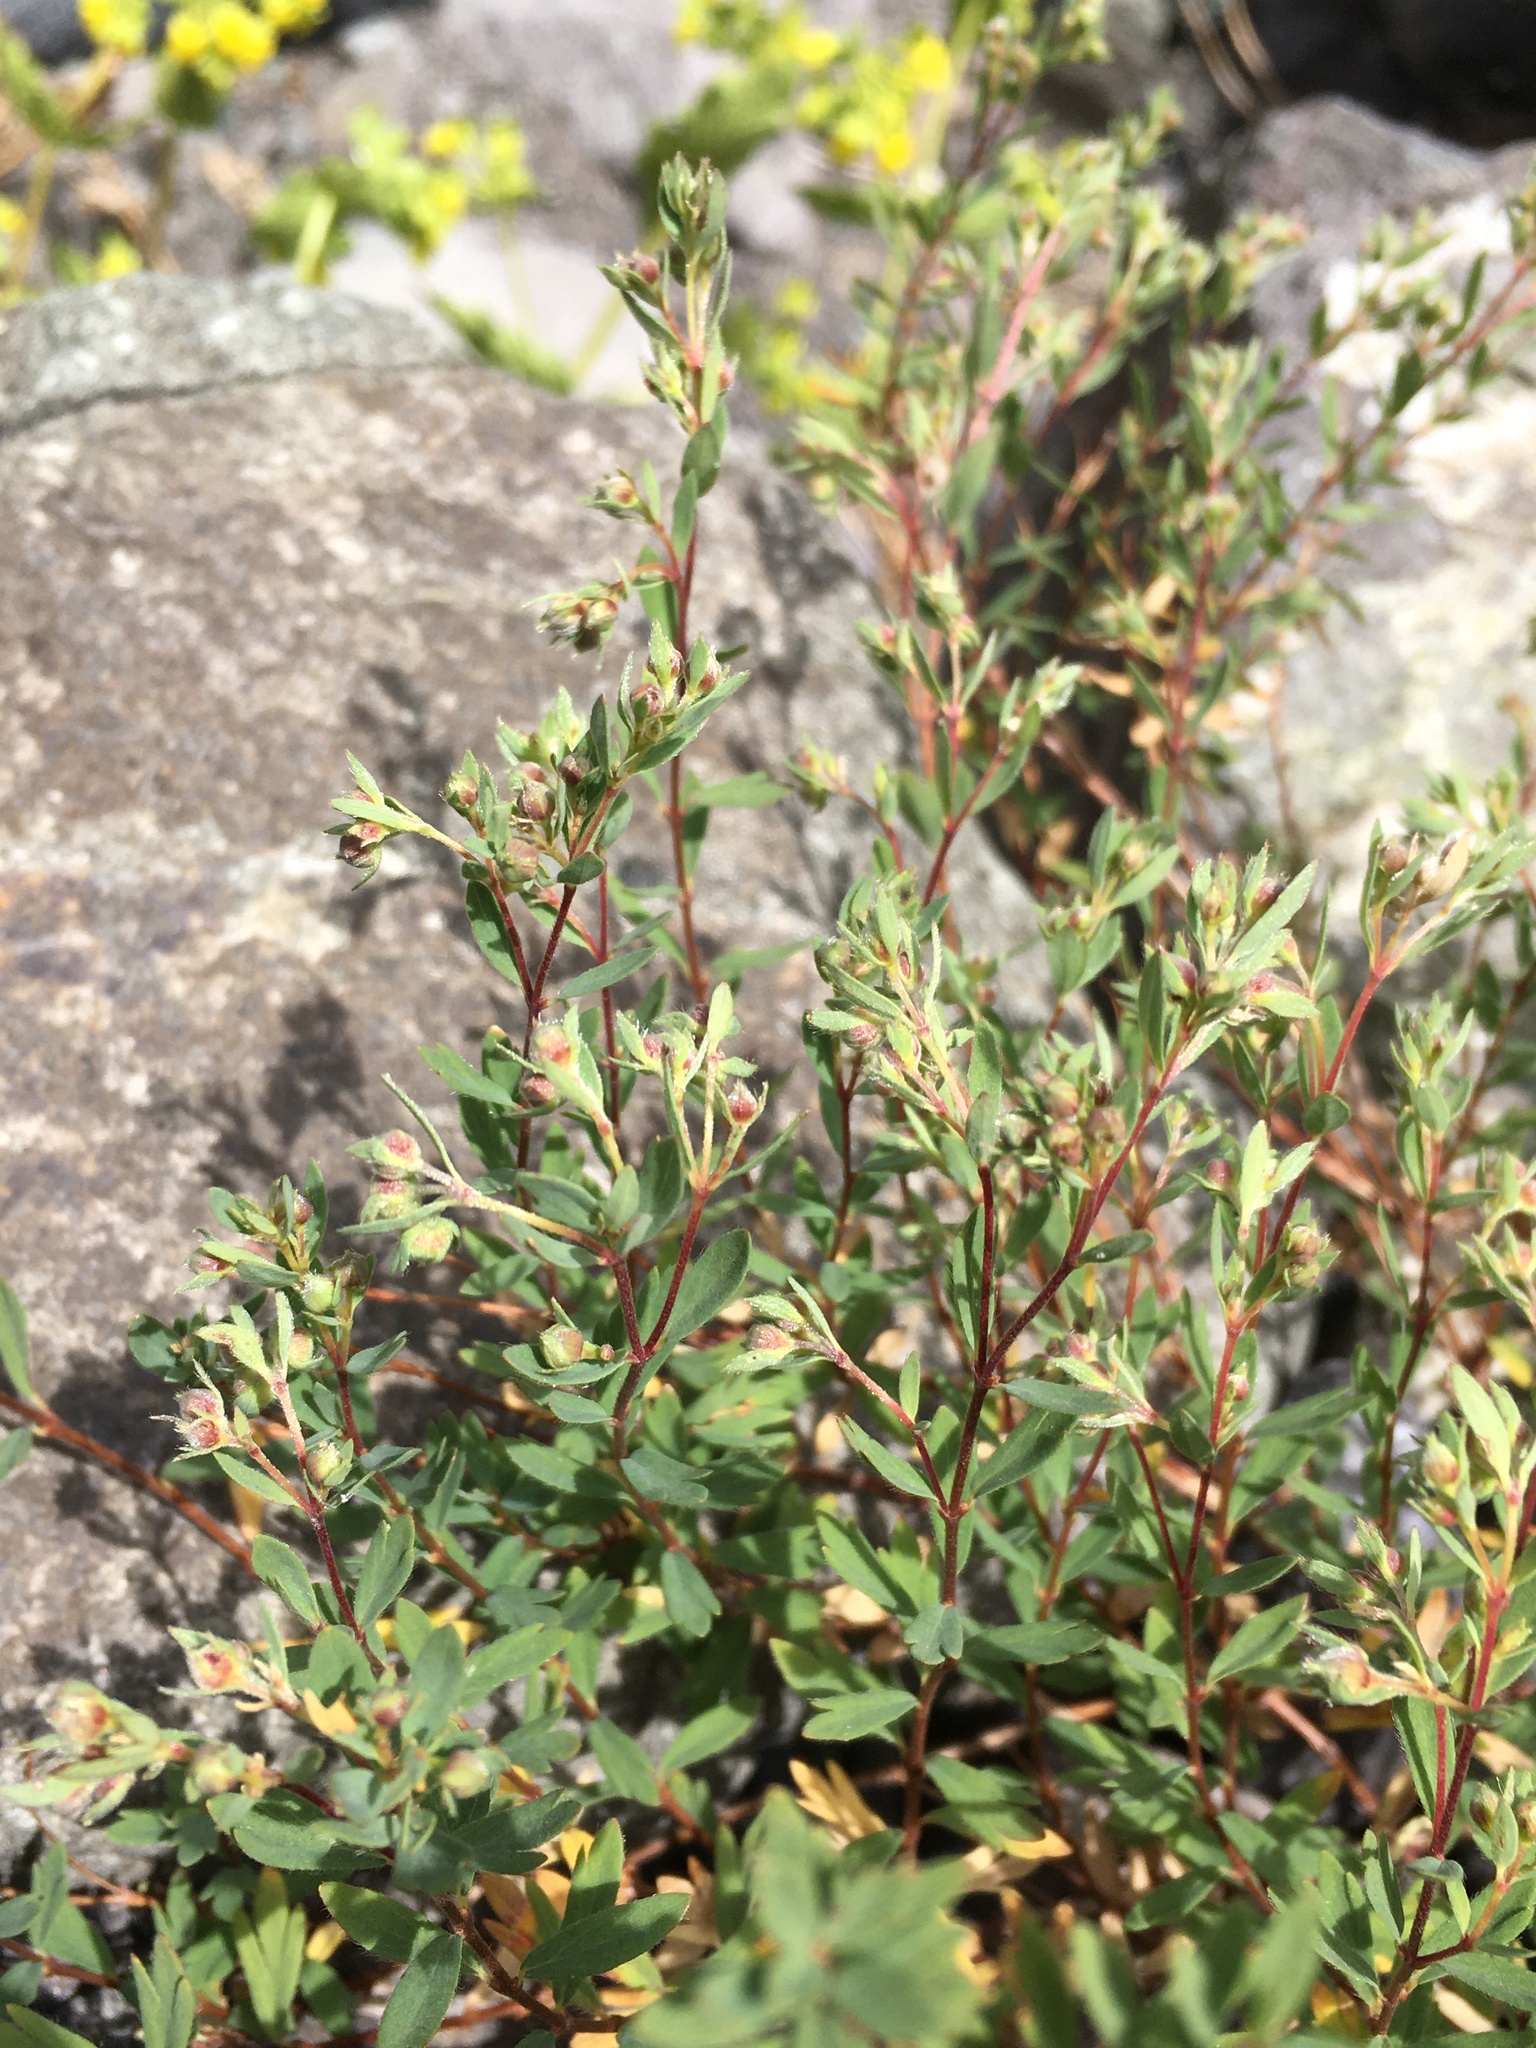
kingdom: Plantae
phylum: Tracheophyta
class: Magnoliopsida
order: Geraniales
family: Vivianiaceae
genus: Wendtia
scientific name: Wendtia gracilis
